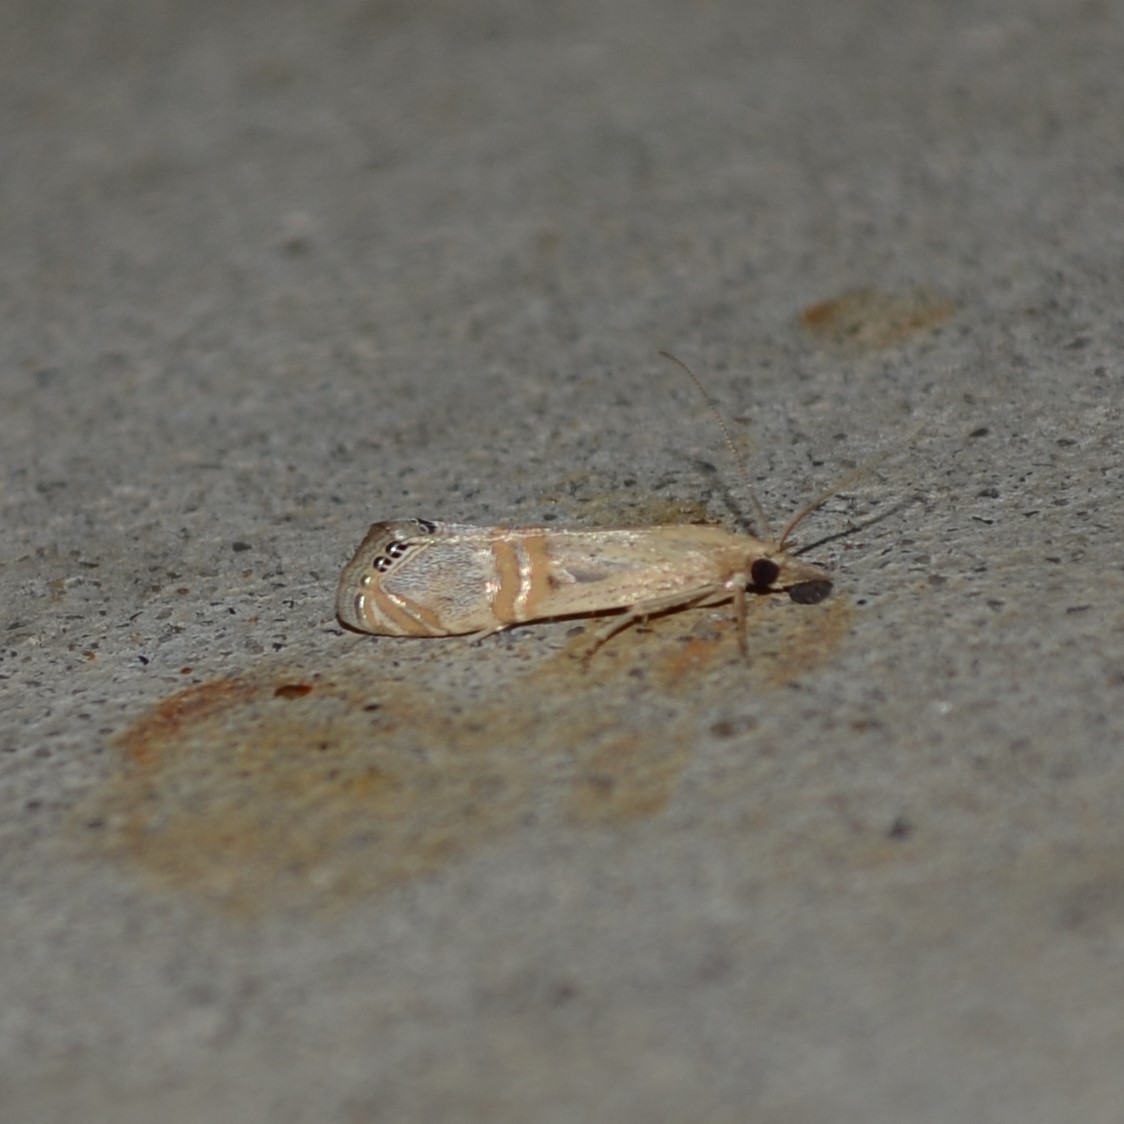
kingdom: Animalia
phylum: Arthropoda
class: Insecta
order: Lepidoptera
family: Crambidae
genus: Euchromius
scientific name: Euchromius ocellea
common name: Necklace veneer moth
